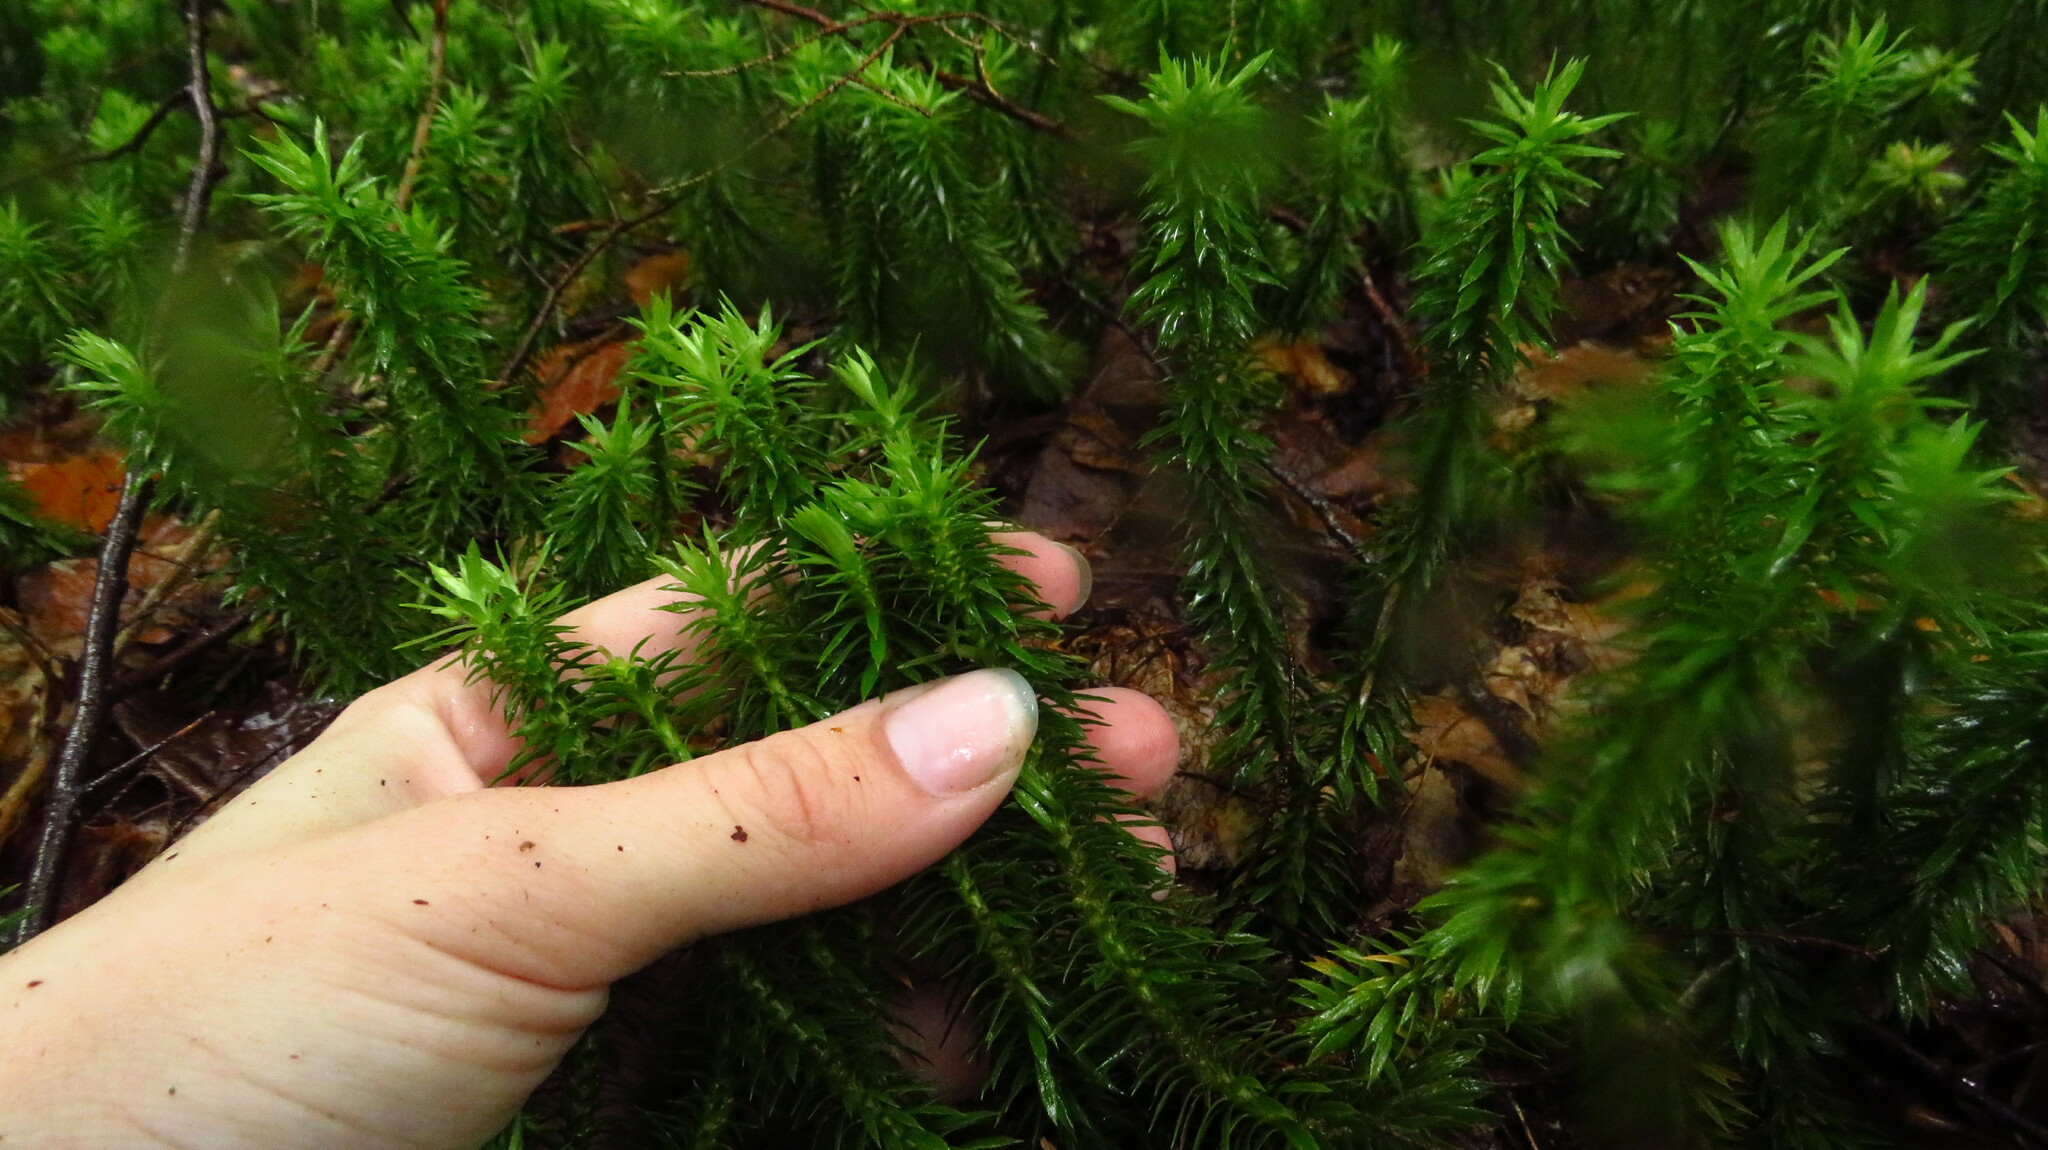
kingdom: Plantae
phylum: Tracheophyta
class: Lycopodiopsida
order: Lycopodiales
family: Lycopodiaceae
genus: Huperzia
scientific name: Huperzia lucidula
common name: Shining clubmoss
